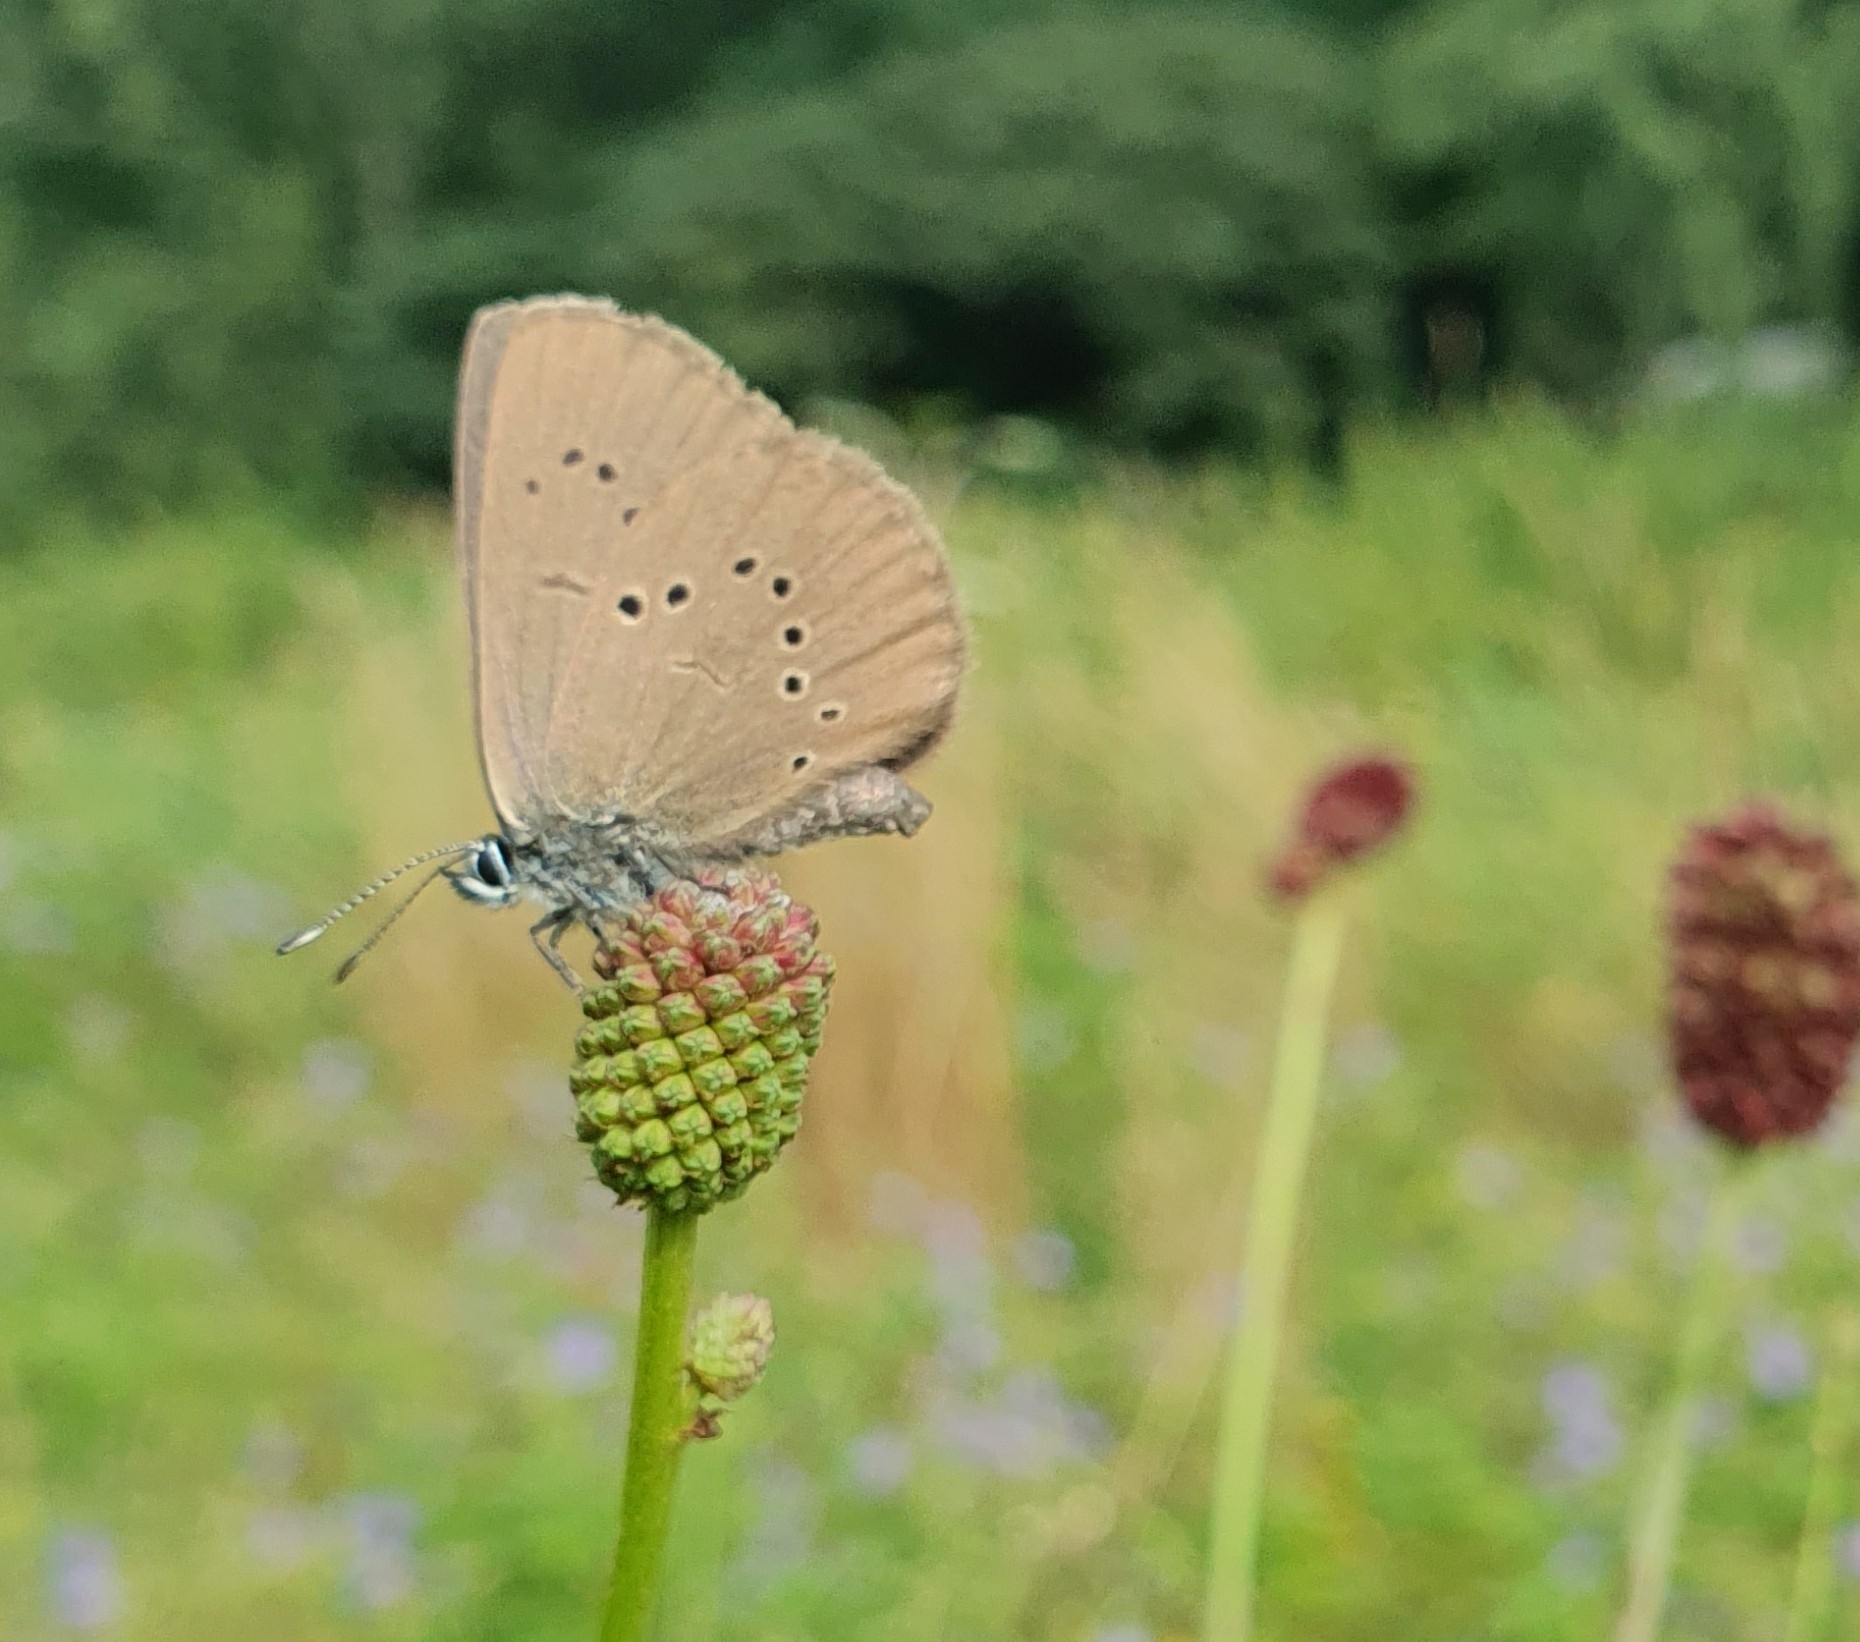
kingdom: Animalia
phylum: Arthropoda
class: Insecta
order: Lepidoptera
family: Lycaenidae
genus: Maculinea
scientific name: Maculinea nausithous
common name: Dusky large blue
